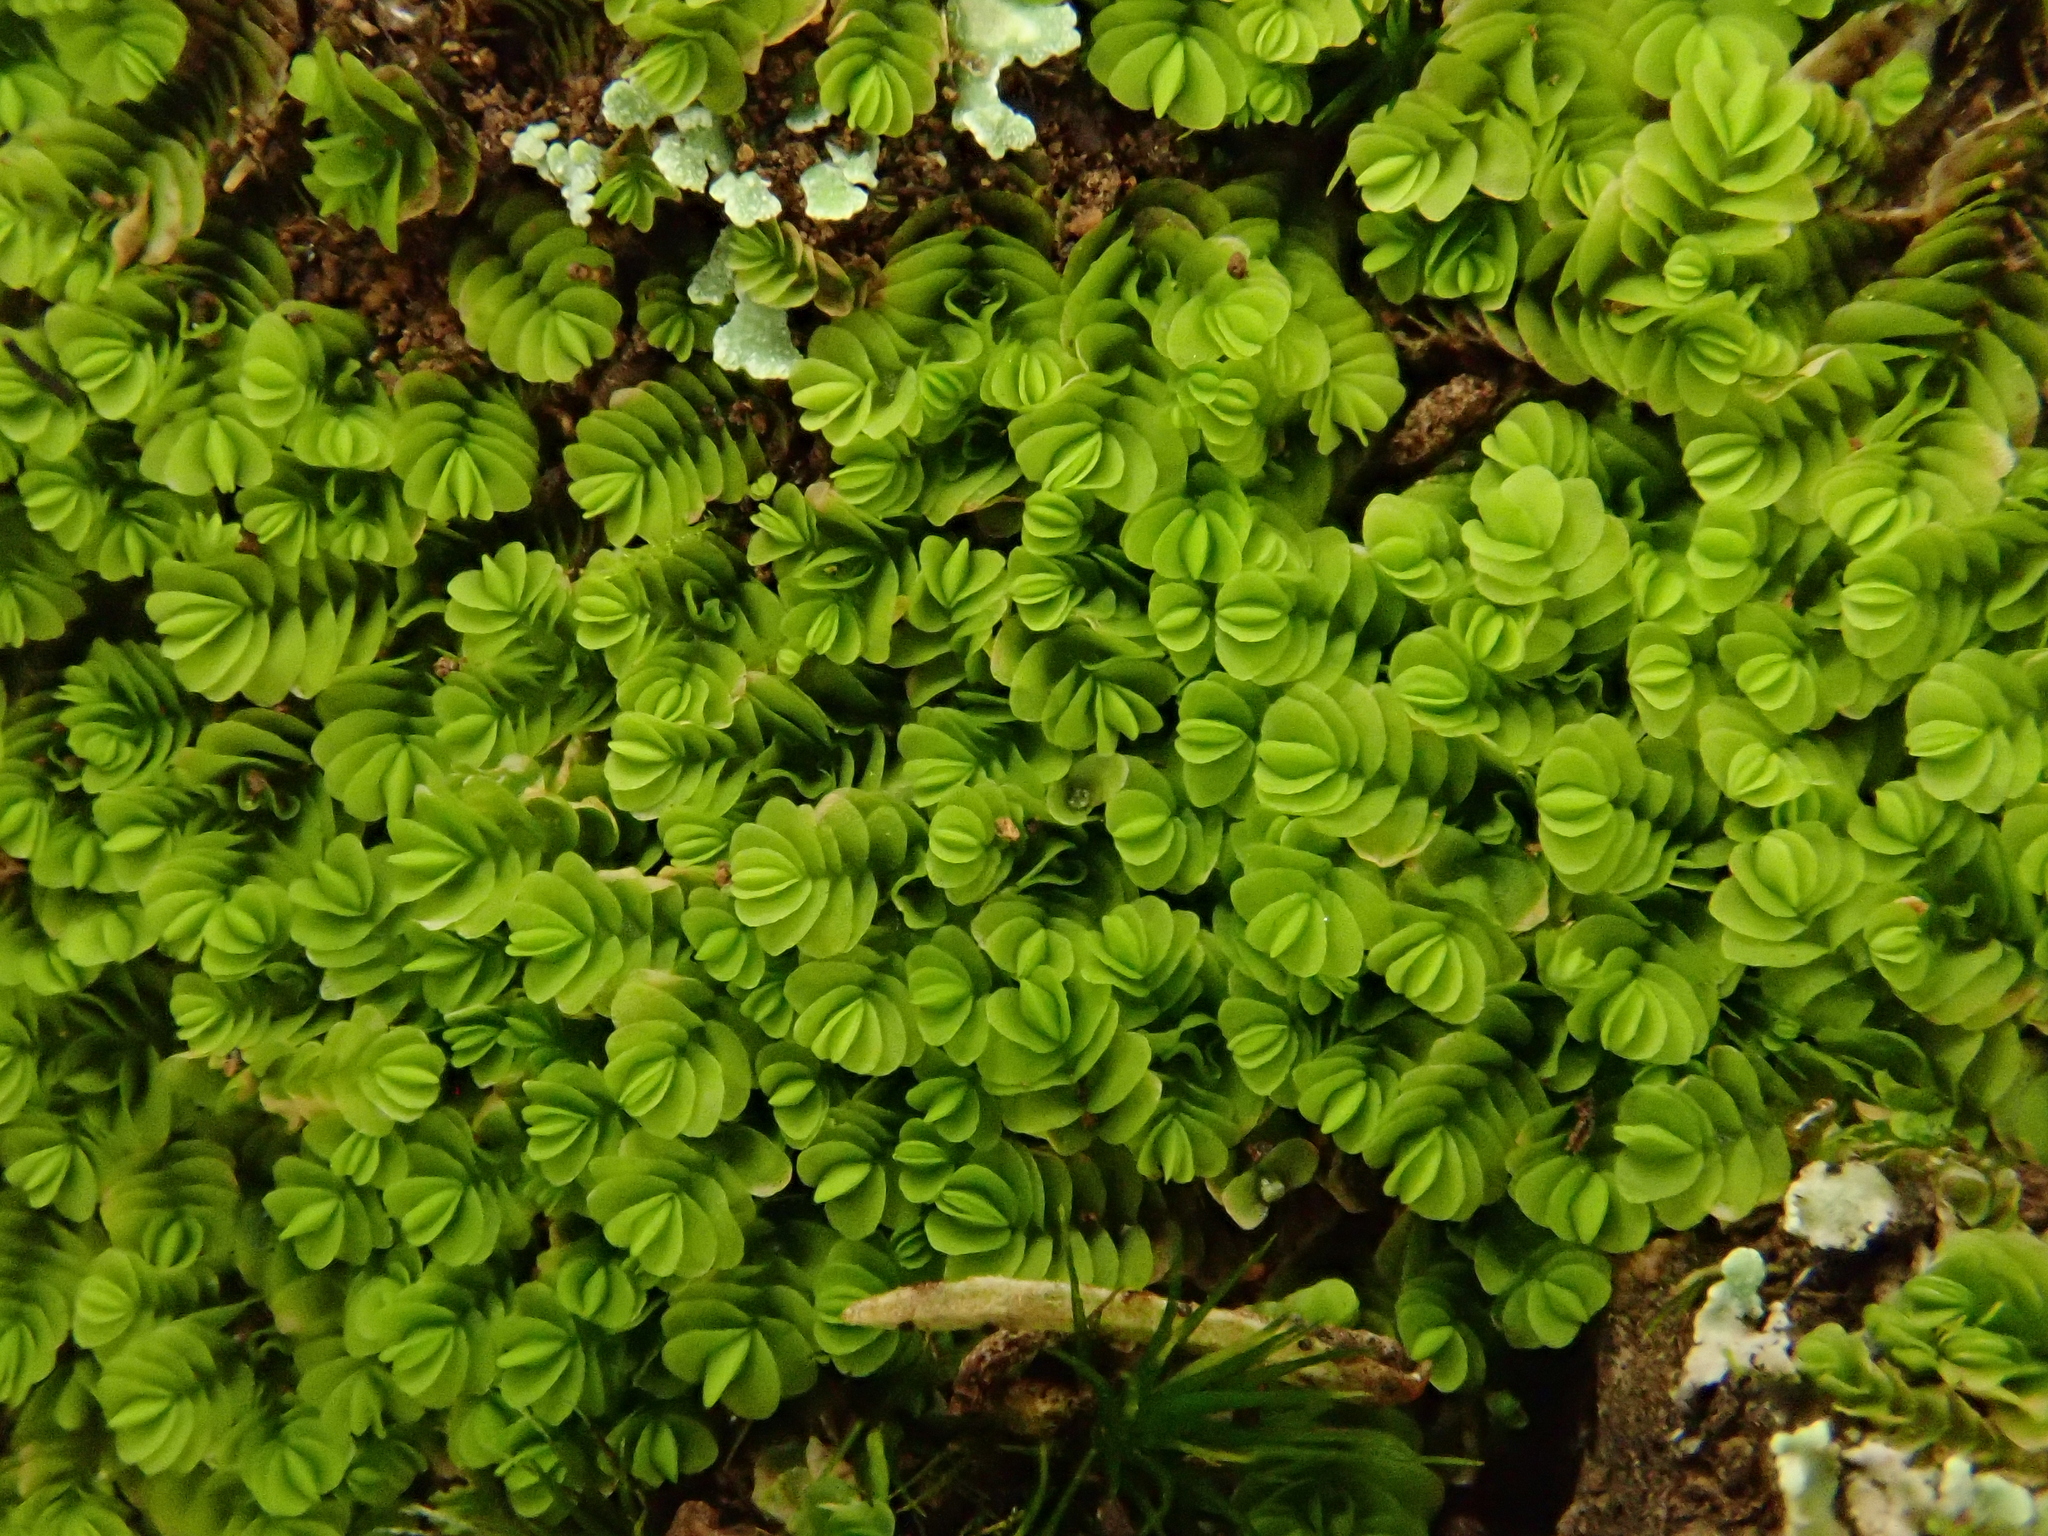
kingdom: Plantae
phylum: Marchantiophyta
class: Jungermanniopsida
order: Jungermanniales
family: Southbyaceae
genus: Gongylanthus
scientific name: Gongylanthus ericetorum
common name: Heath pouchwort
